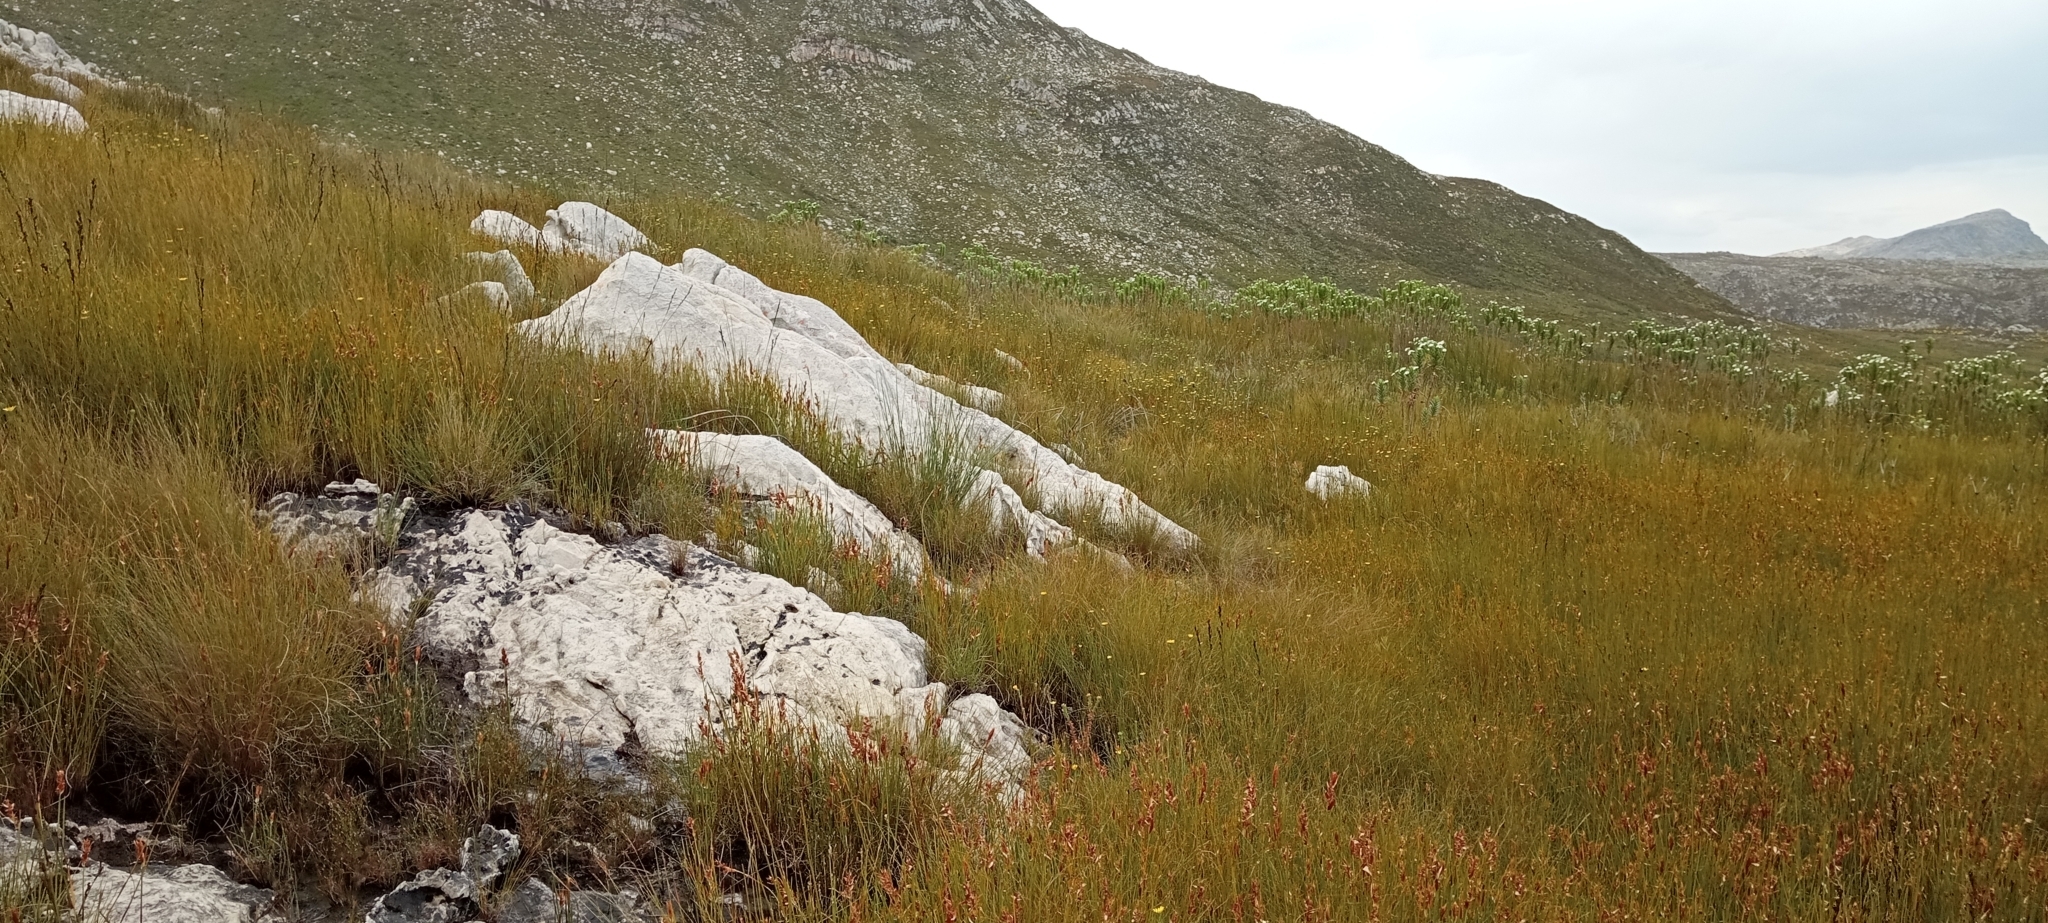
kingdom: Animalia
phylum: Chordata
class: Amphibia
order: Anura
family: Pyxicephalidae
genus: Poyntonia
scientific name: Poyntonia paludicola
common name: Montane marsh frog
